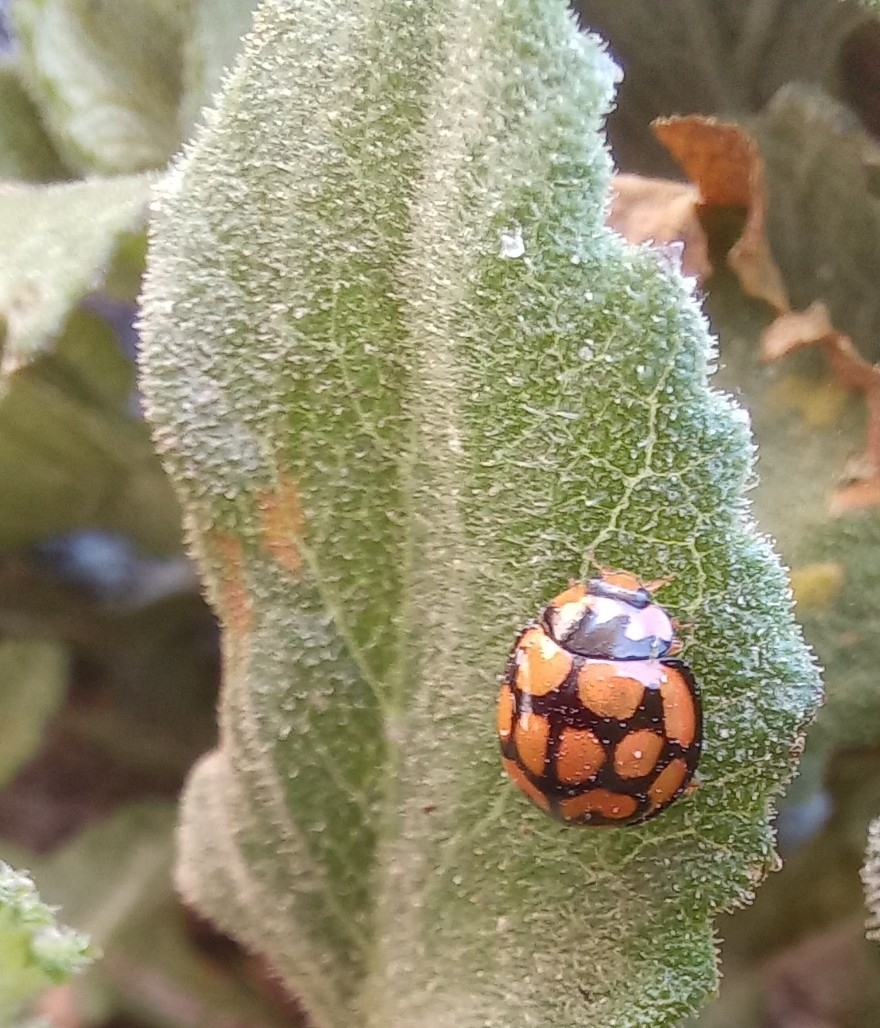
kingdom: Animalia
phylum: Arthropoda
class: Insecta
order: Coleoptera
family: Coccinellidae
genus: Cheilomenes
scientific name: Cheilomenes lunata
